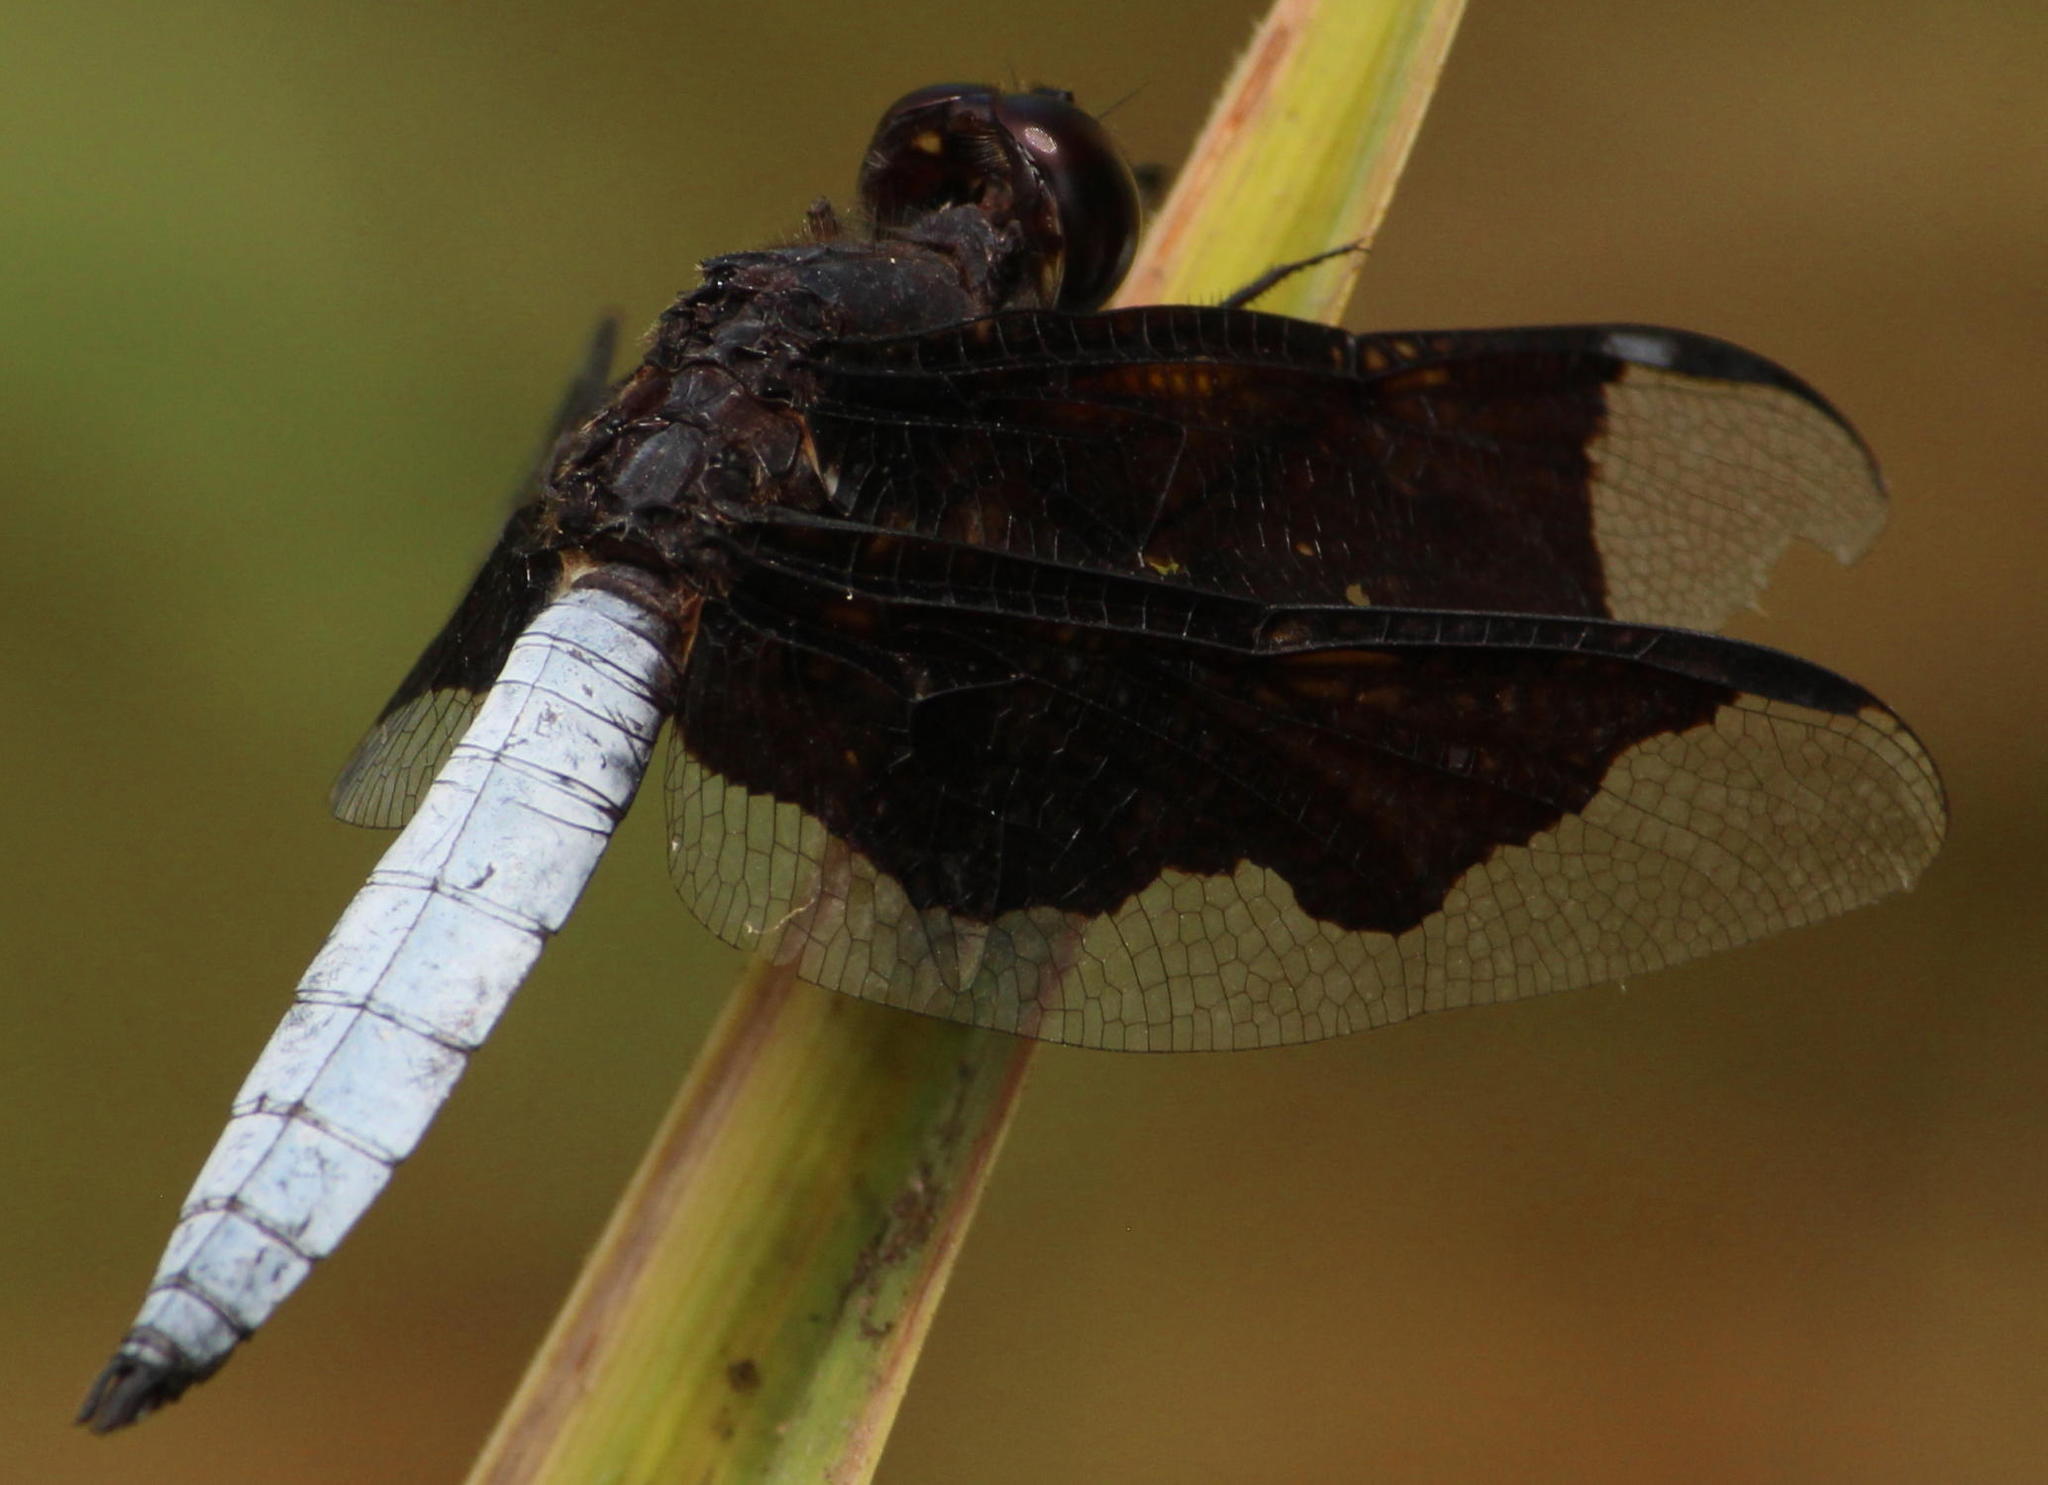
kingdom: Animalia
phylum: Arthropoda
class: Insecta
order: Odonata
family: Libellulidae
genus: Palpopleura
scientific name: Palpopleura lucia
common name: Lucia widow
